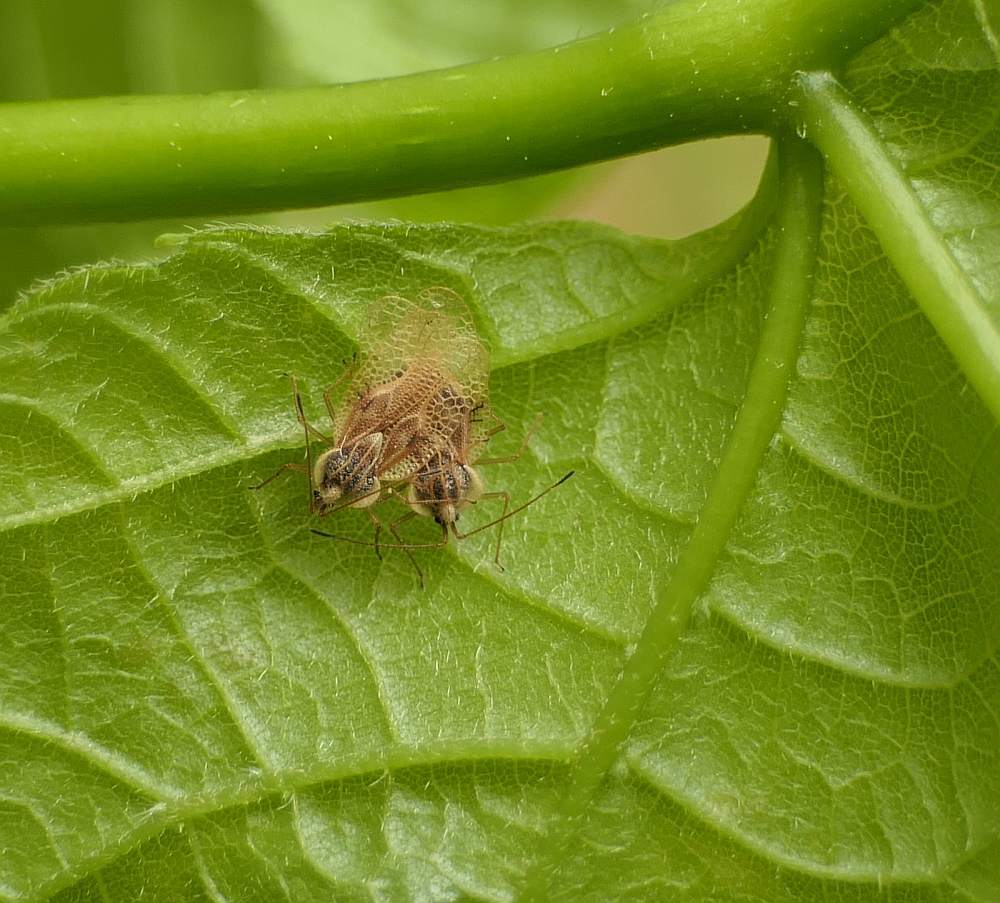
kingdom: Animalia
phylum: Arthropoda
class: Insecta
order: Hemiptera
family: Tingidae
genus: Gargaphia
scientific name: Gargaphia tiliae
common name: Basswood lace bug
